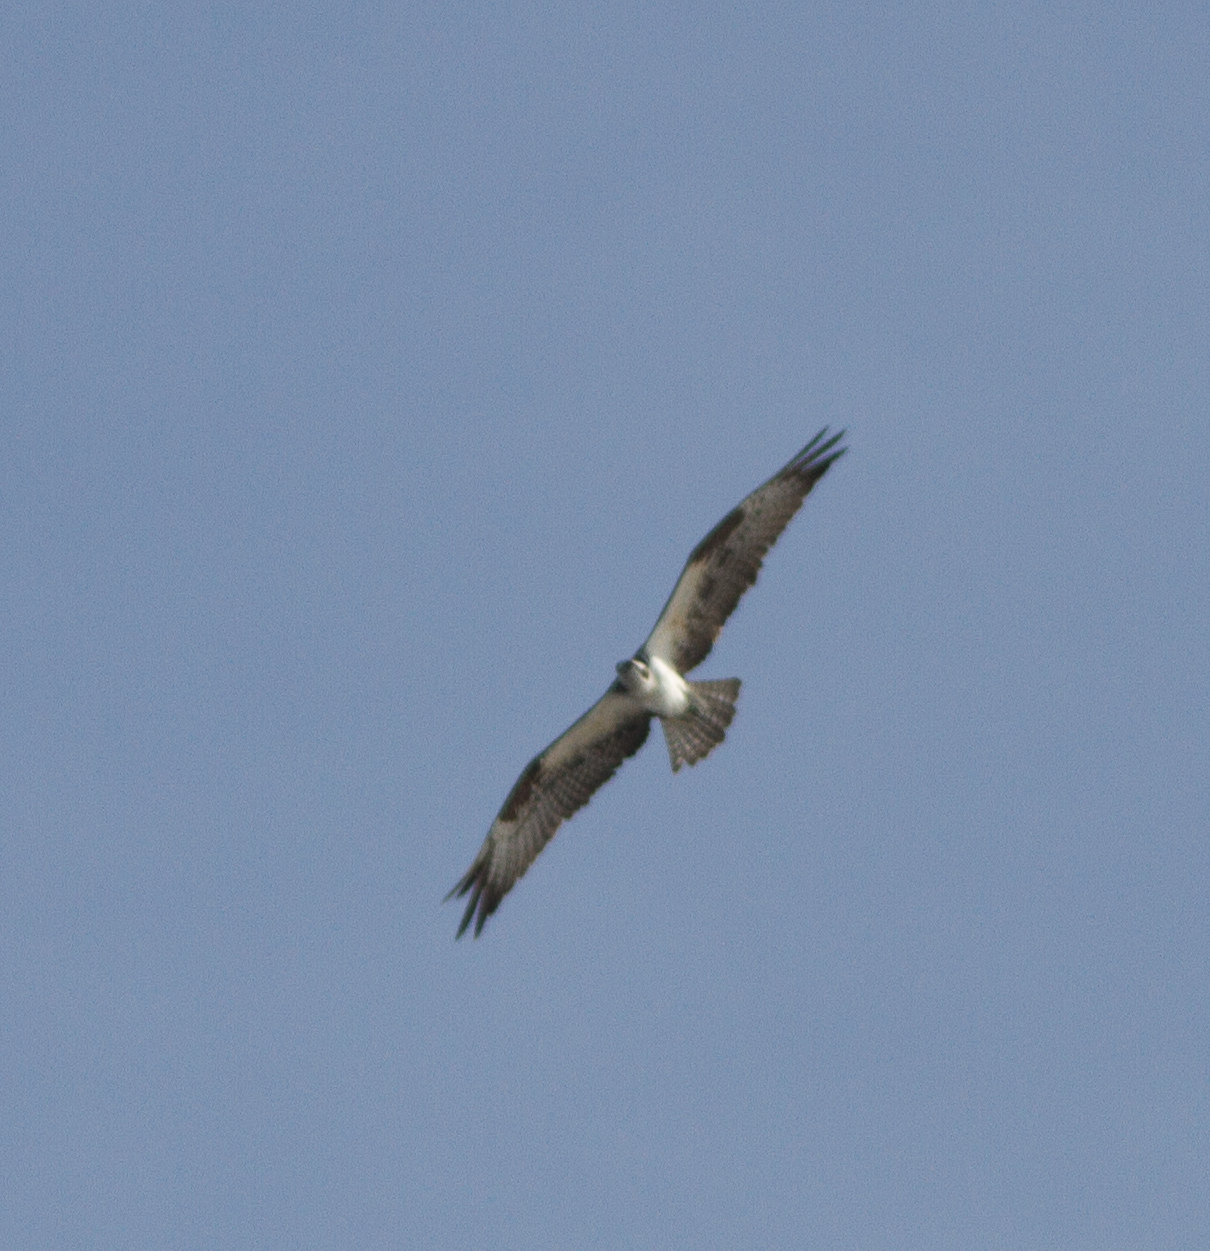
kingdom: Animalia
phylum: Chordata
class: Aves
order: Accipitriformes
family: Pandionidae
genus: Pandion
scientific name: Pandion haliaetus
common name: Osprey
